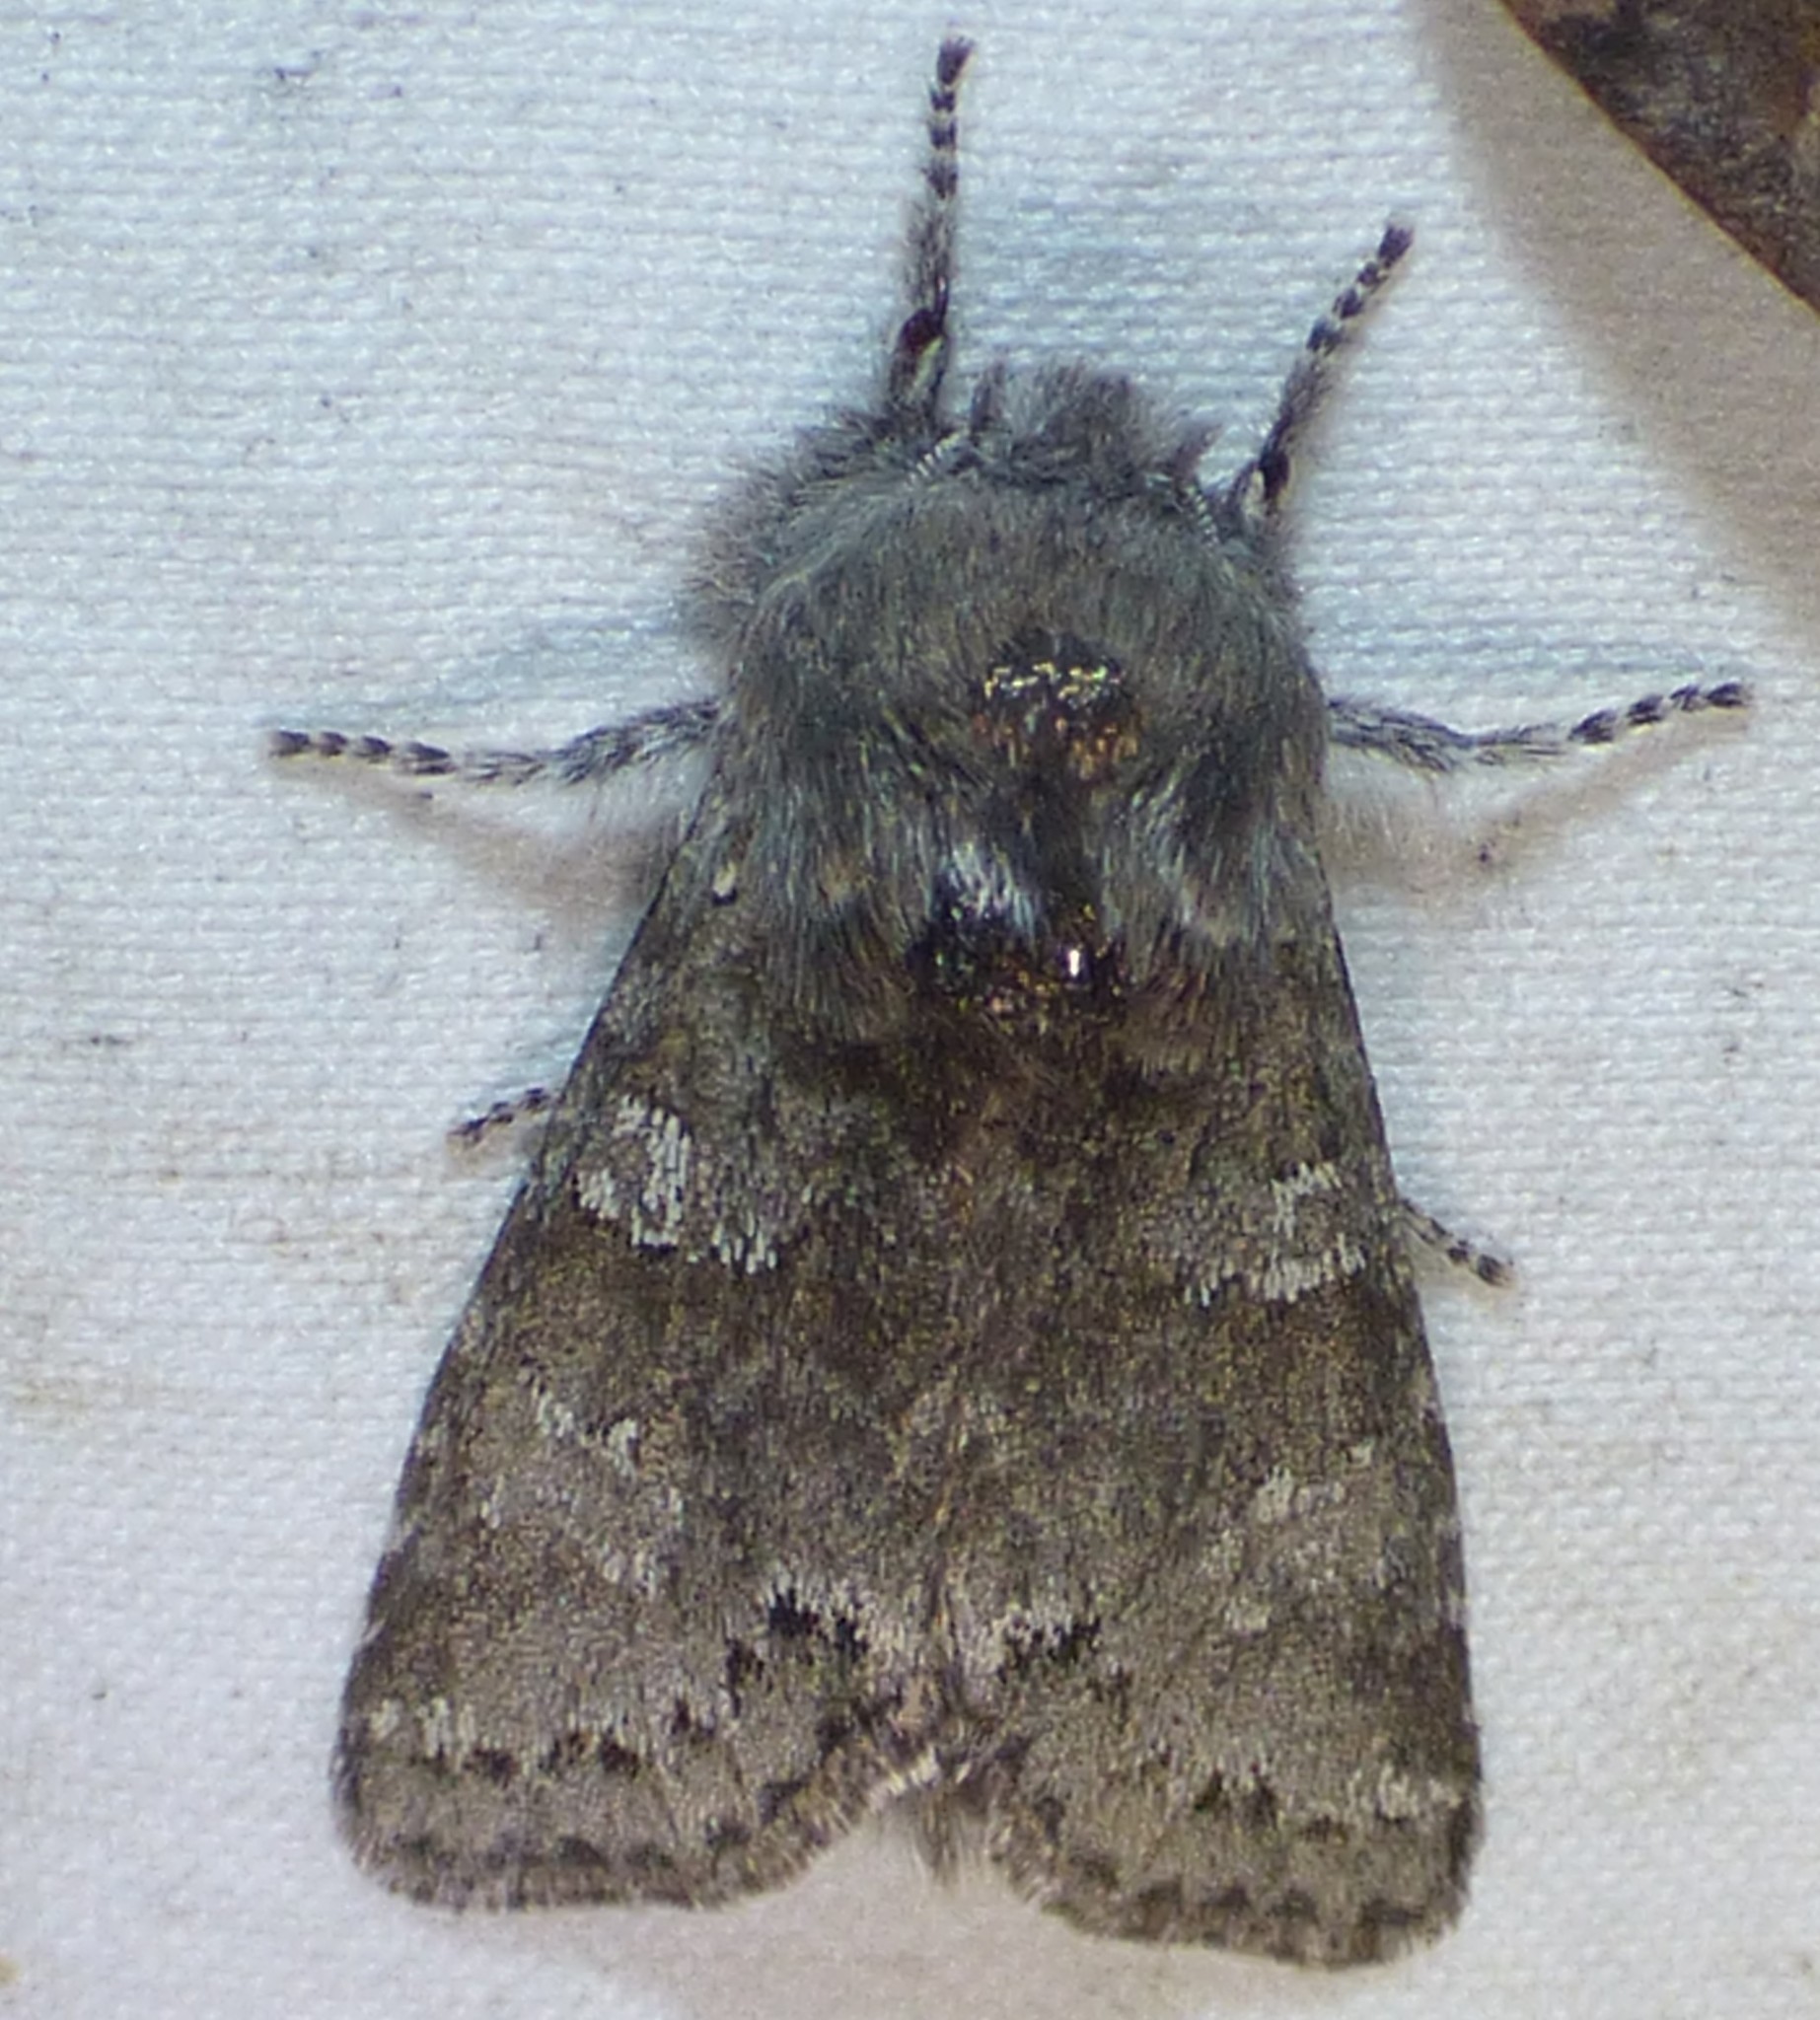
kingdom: Animalia
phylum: Arthropoda
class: Insecta
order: Lepidoptera
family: Noctuidae
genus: Psaphida
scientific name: Psaphida rolandi
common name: Roland's sallow
